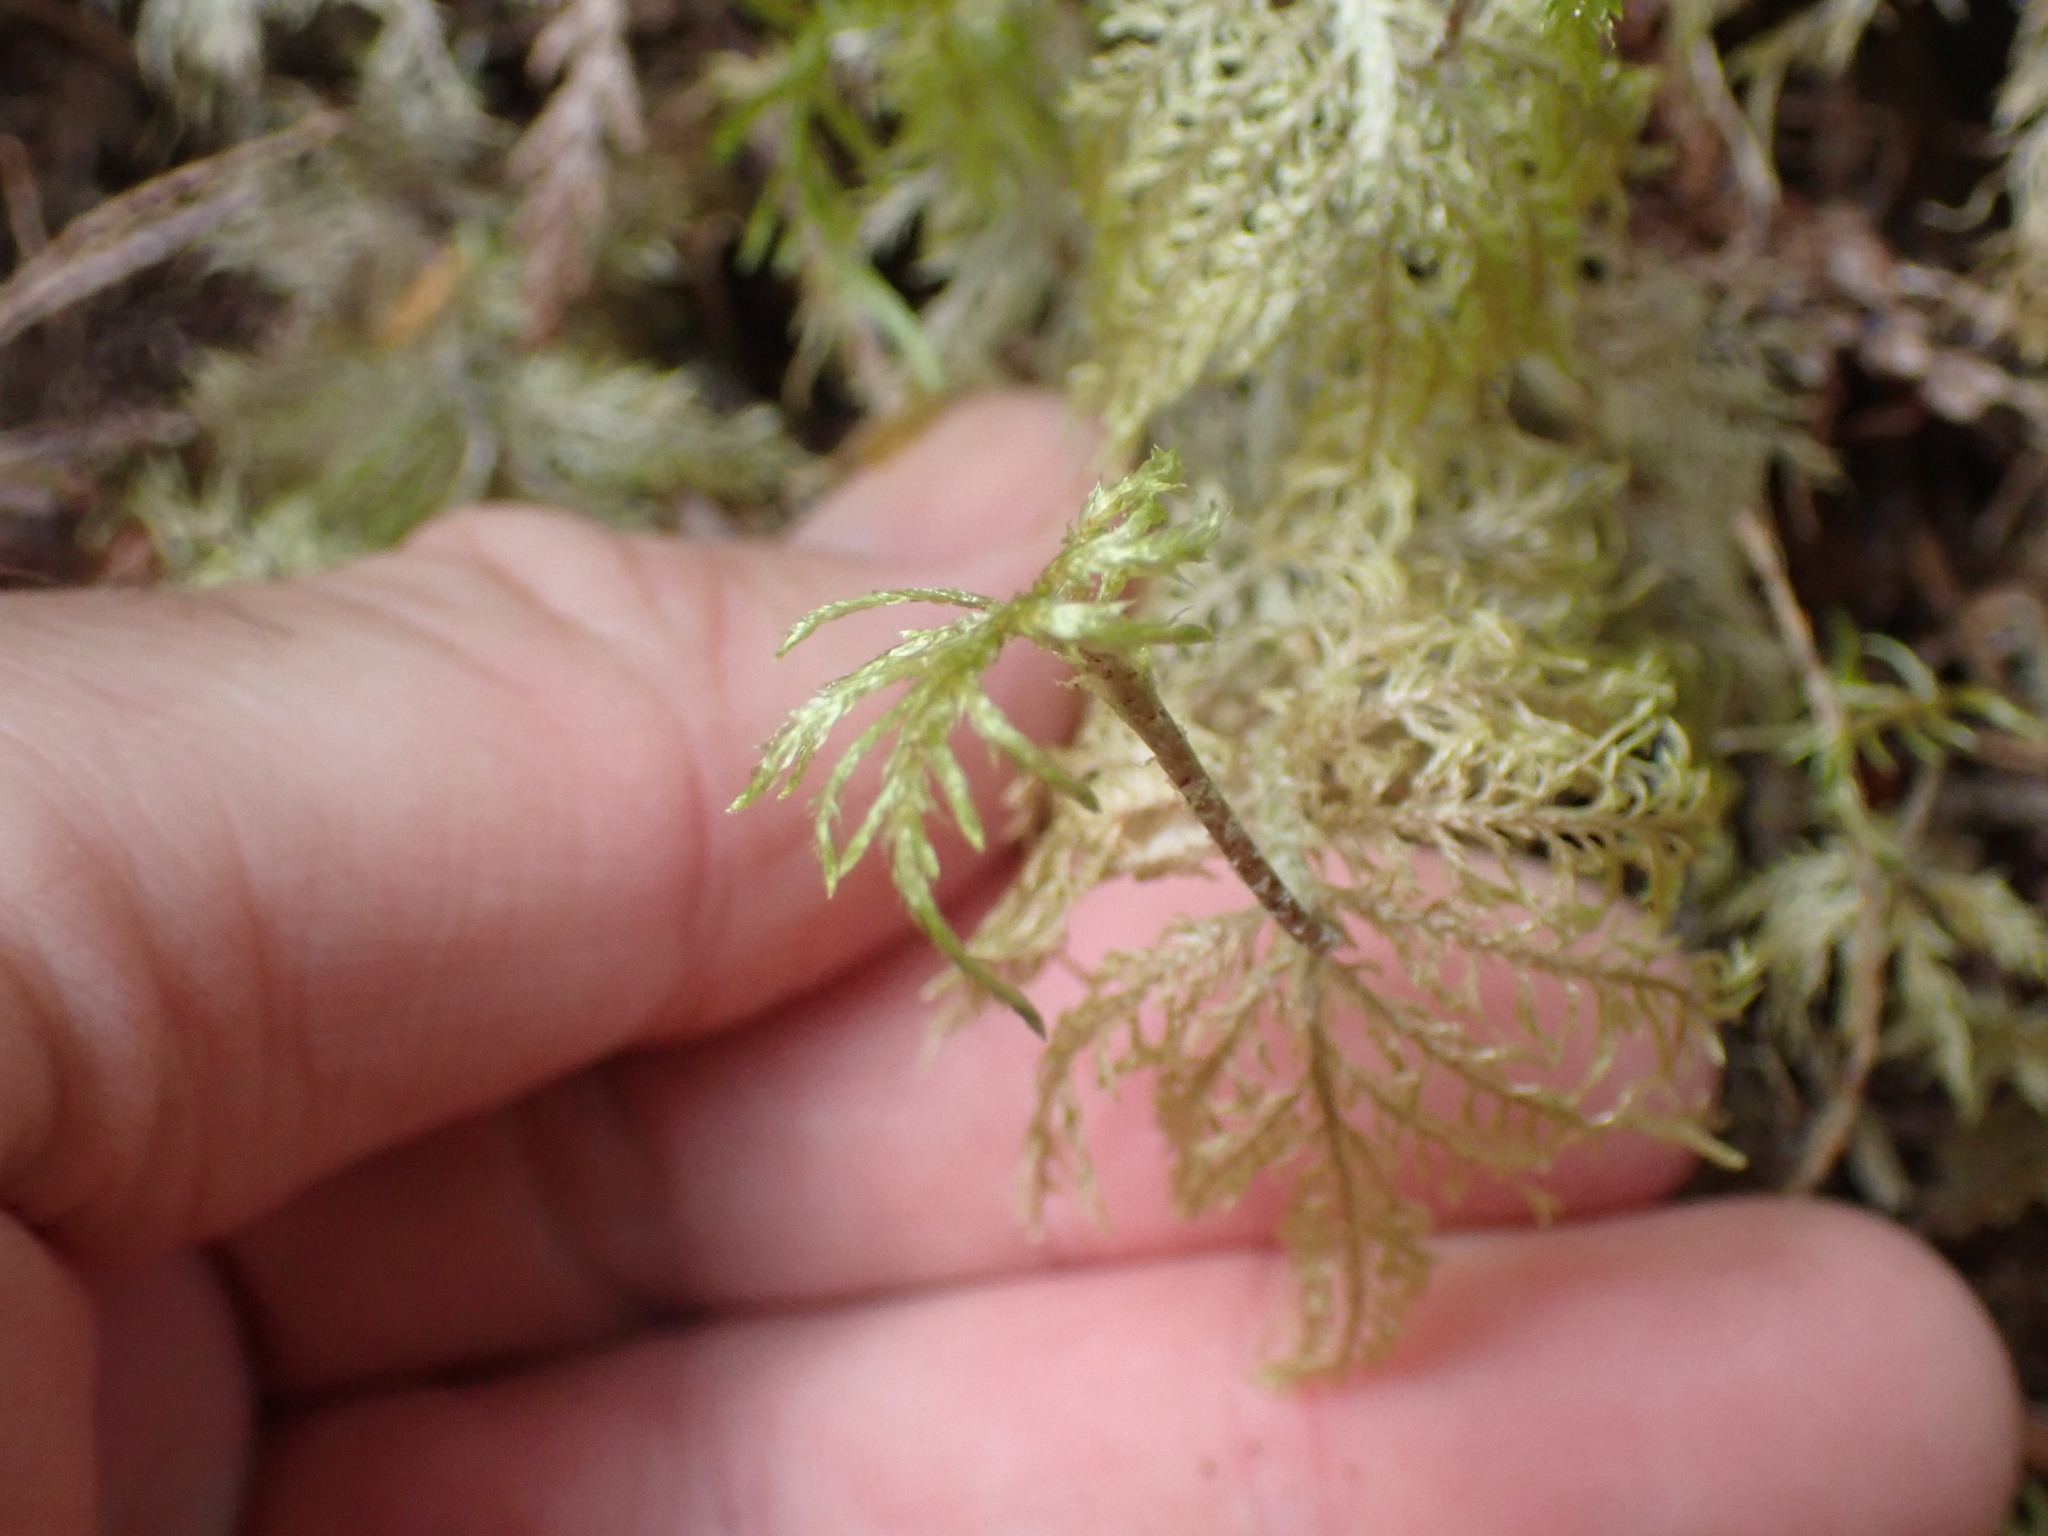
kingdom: Plantae
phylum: Bryophyta
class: Bryopsida
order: Hypnales
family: Hylocomiaceae
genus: Hylocomium
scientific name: Hylocomium splendens
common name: Stairstep moss
